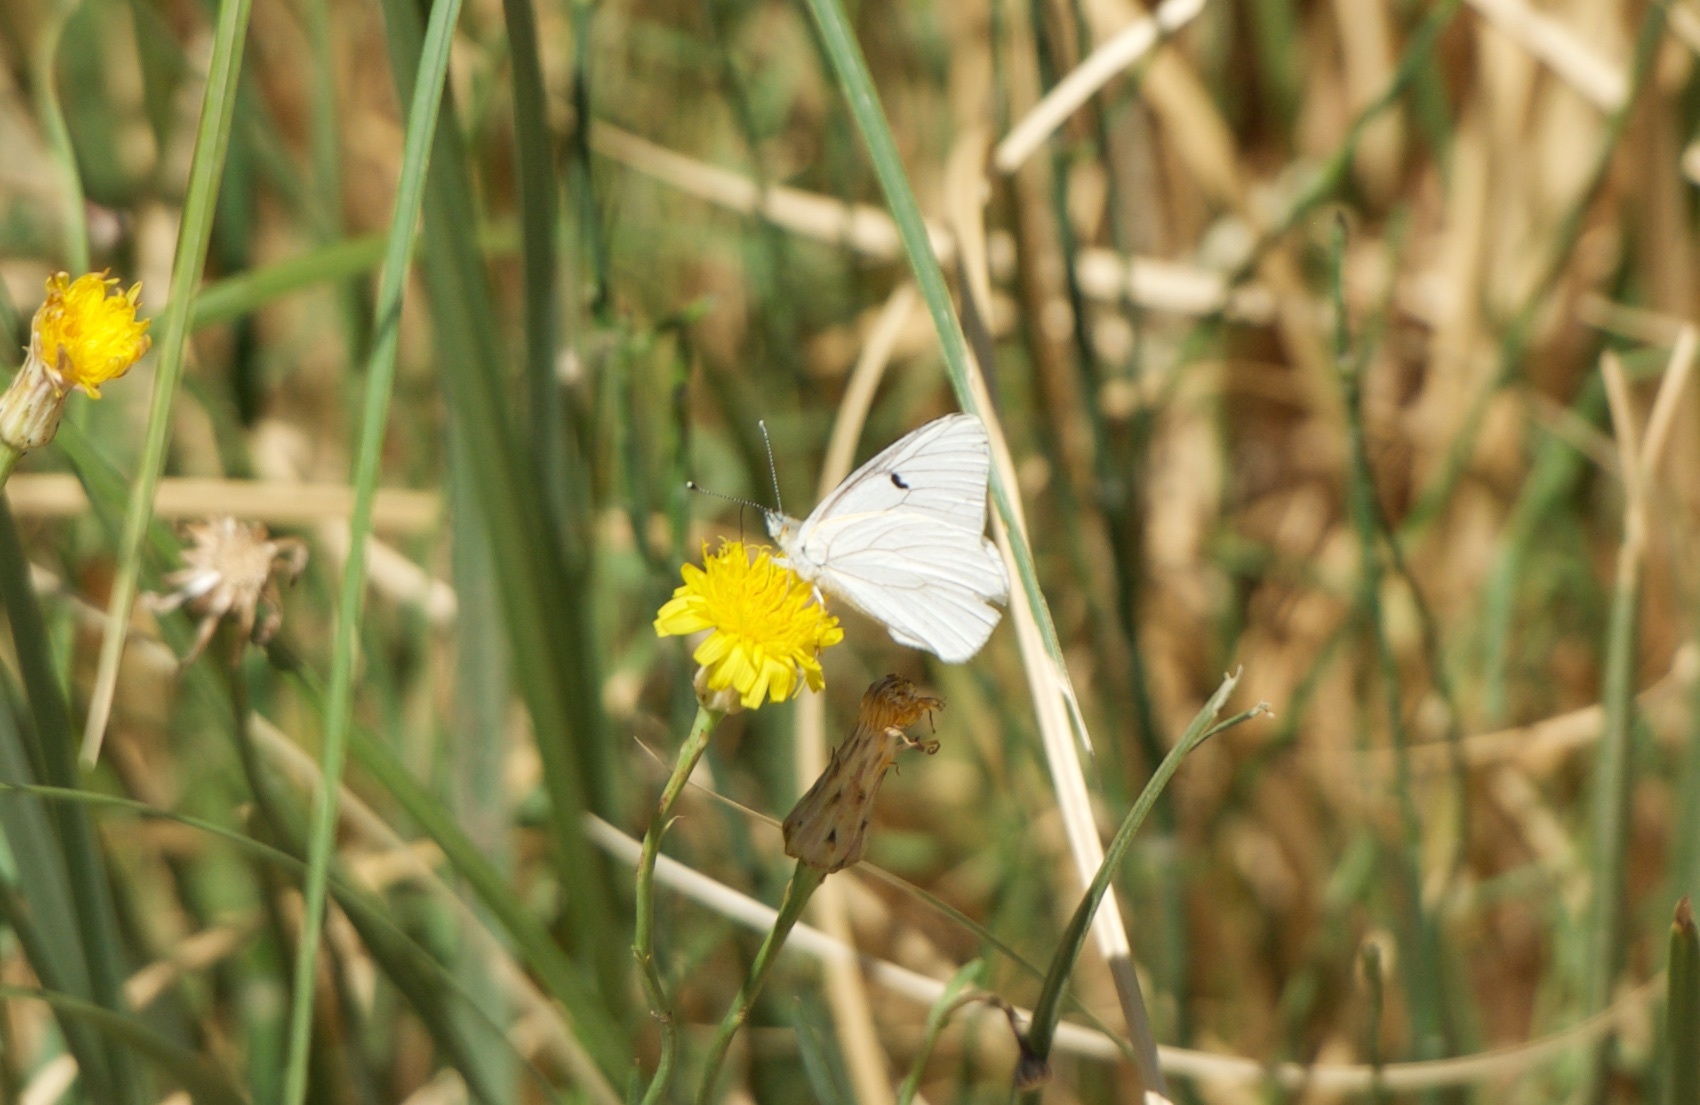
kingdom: Animalia
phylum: Arthropoda
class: Insecta
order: Lepidoptera
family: Pieridae
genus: Tatochila
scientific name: Tatochila mercedis
